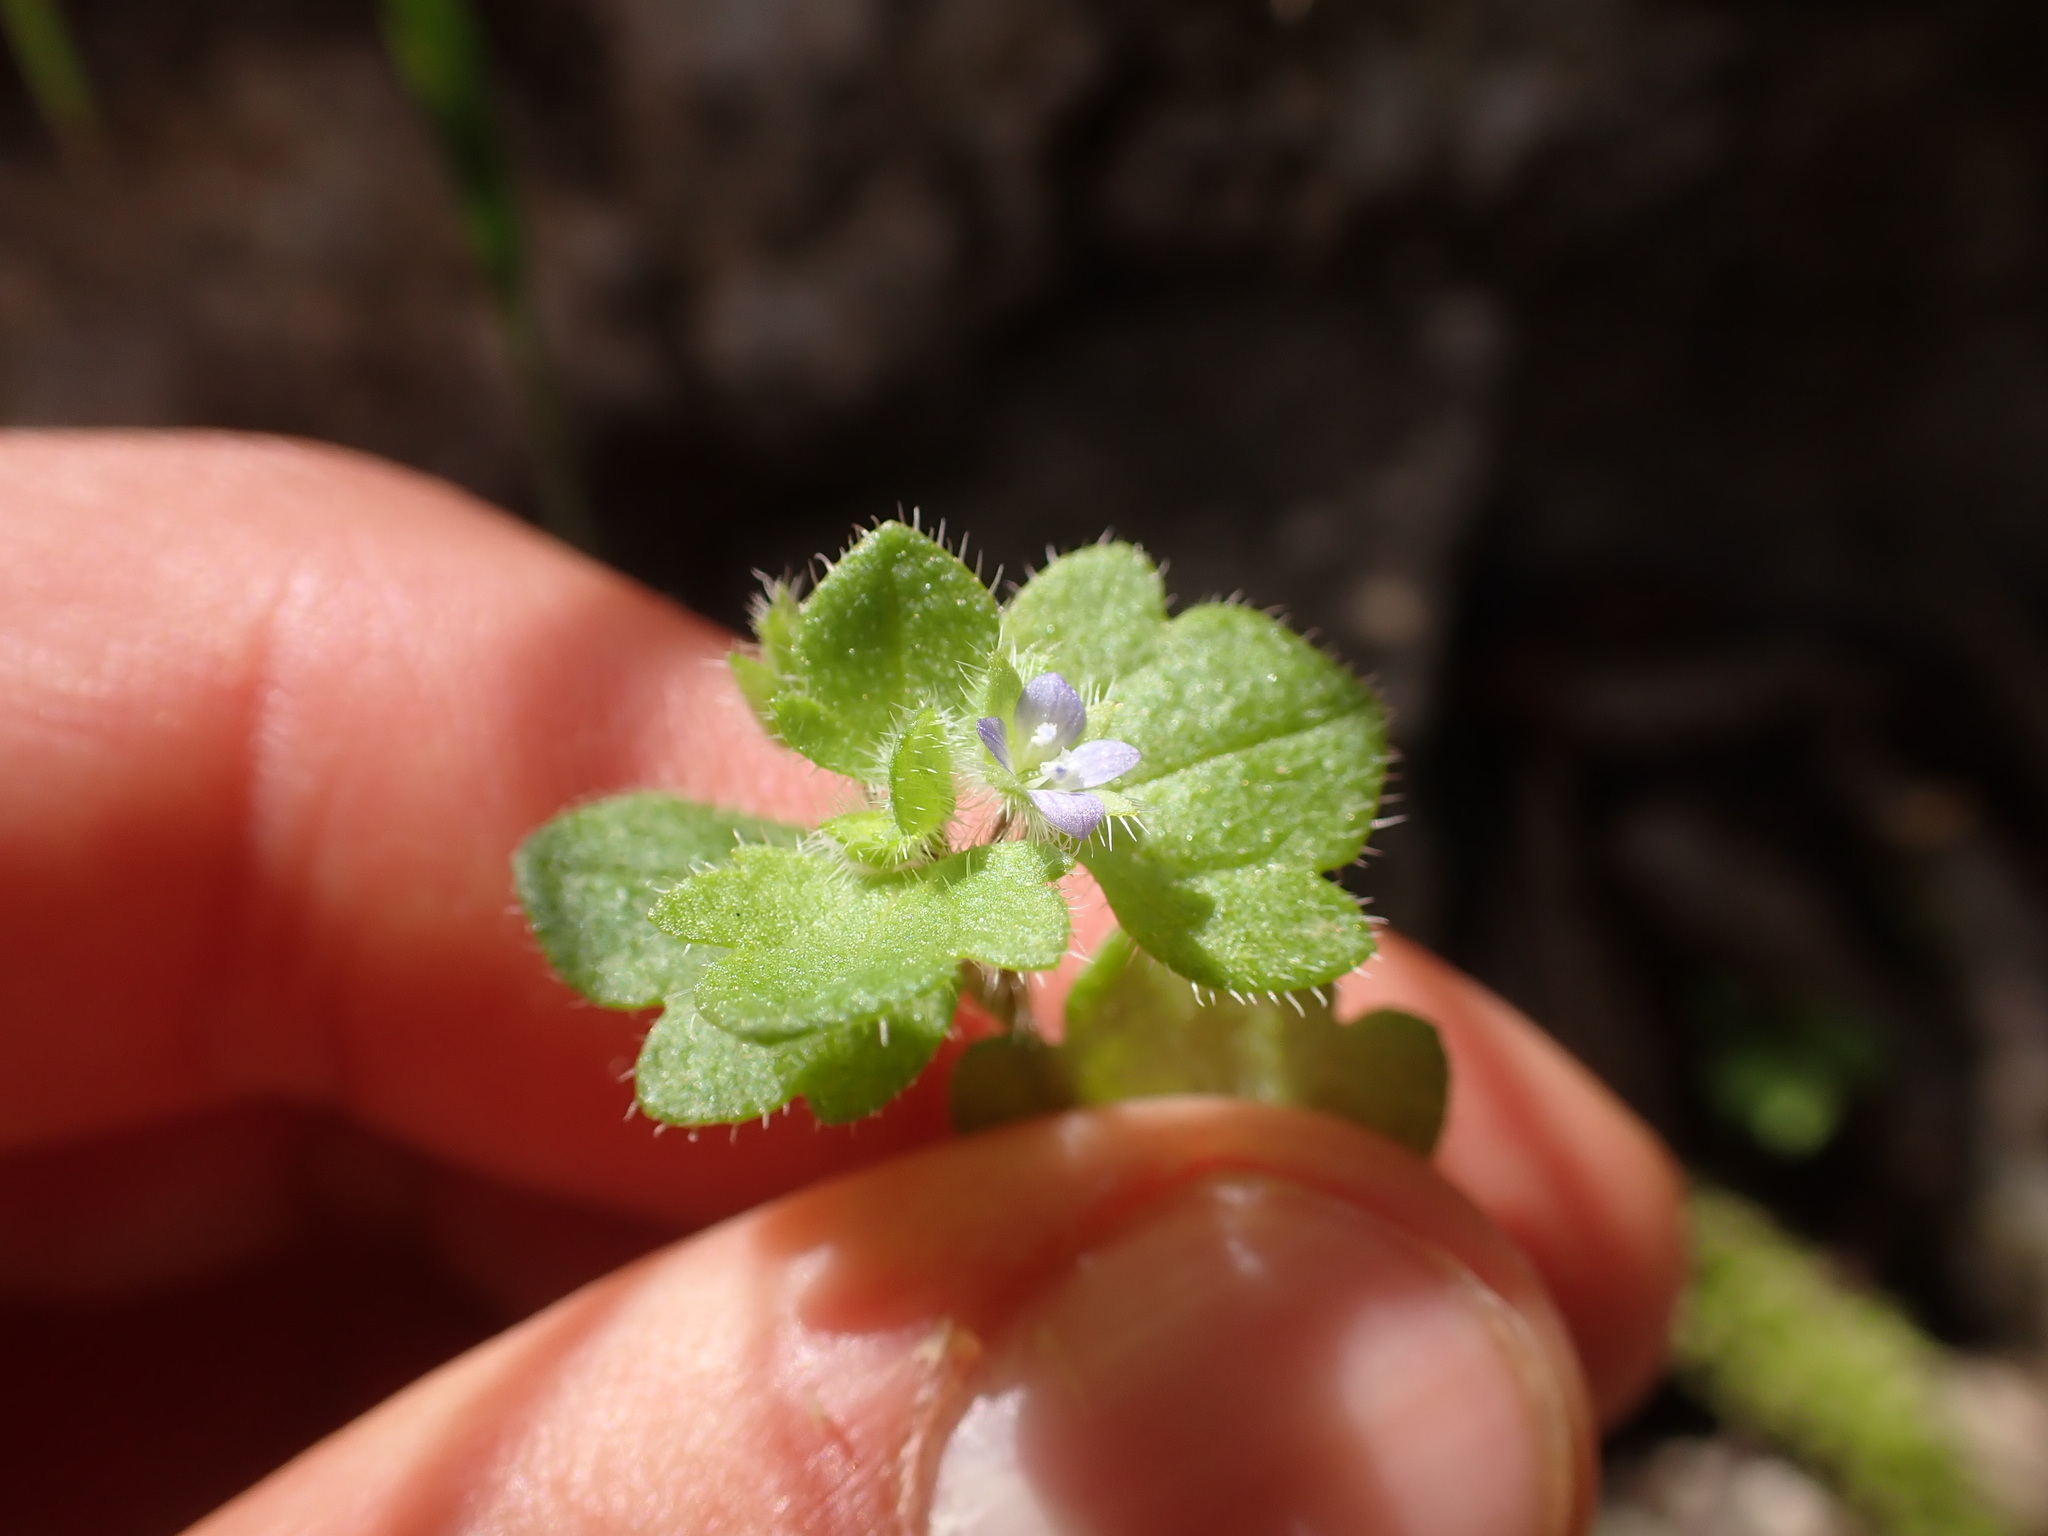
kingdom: Plantae
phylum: Tracheophyta
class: Magnoliopsida
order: Lamiales
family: Plantaginaceae
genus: Veronica
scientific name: Veronica hederifolia
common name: Ivy-leaved speedwell
